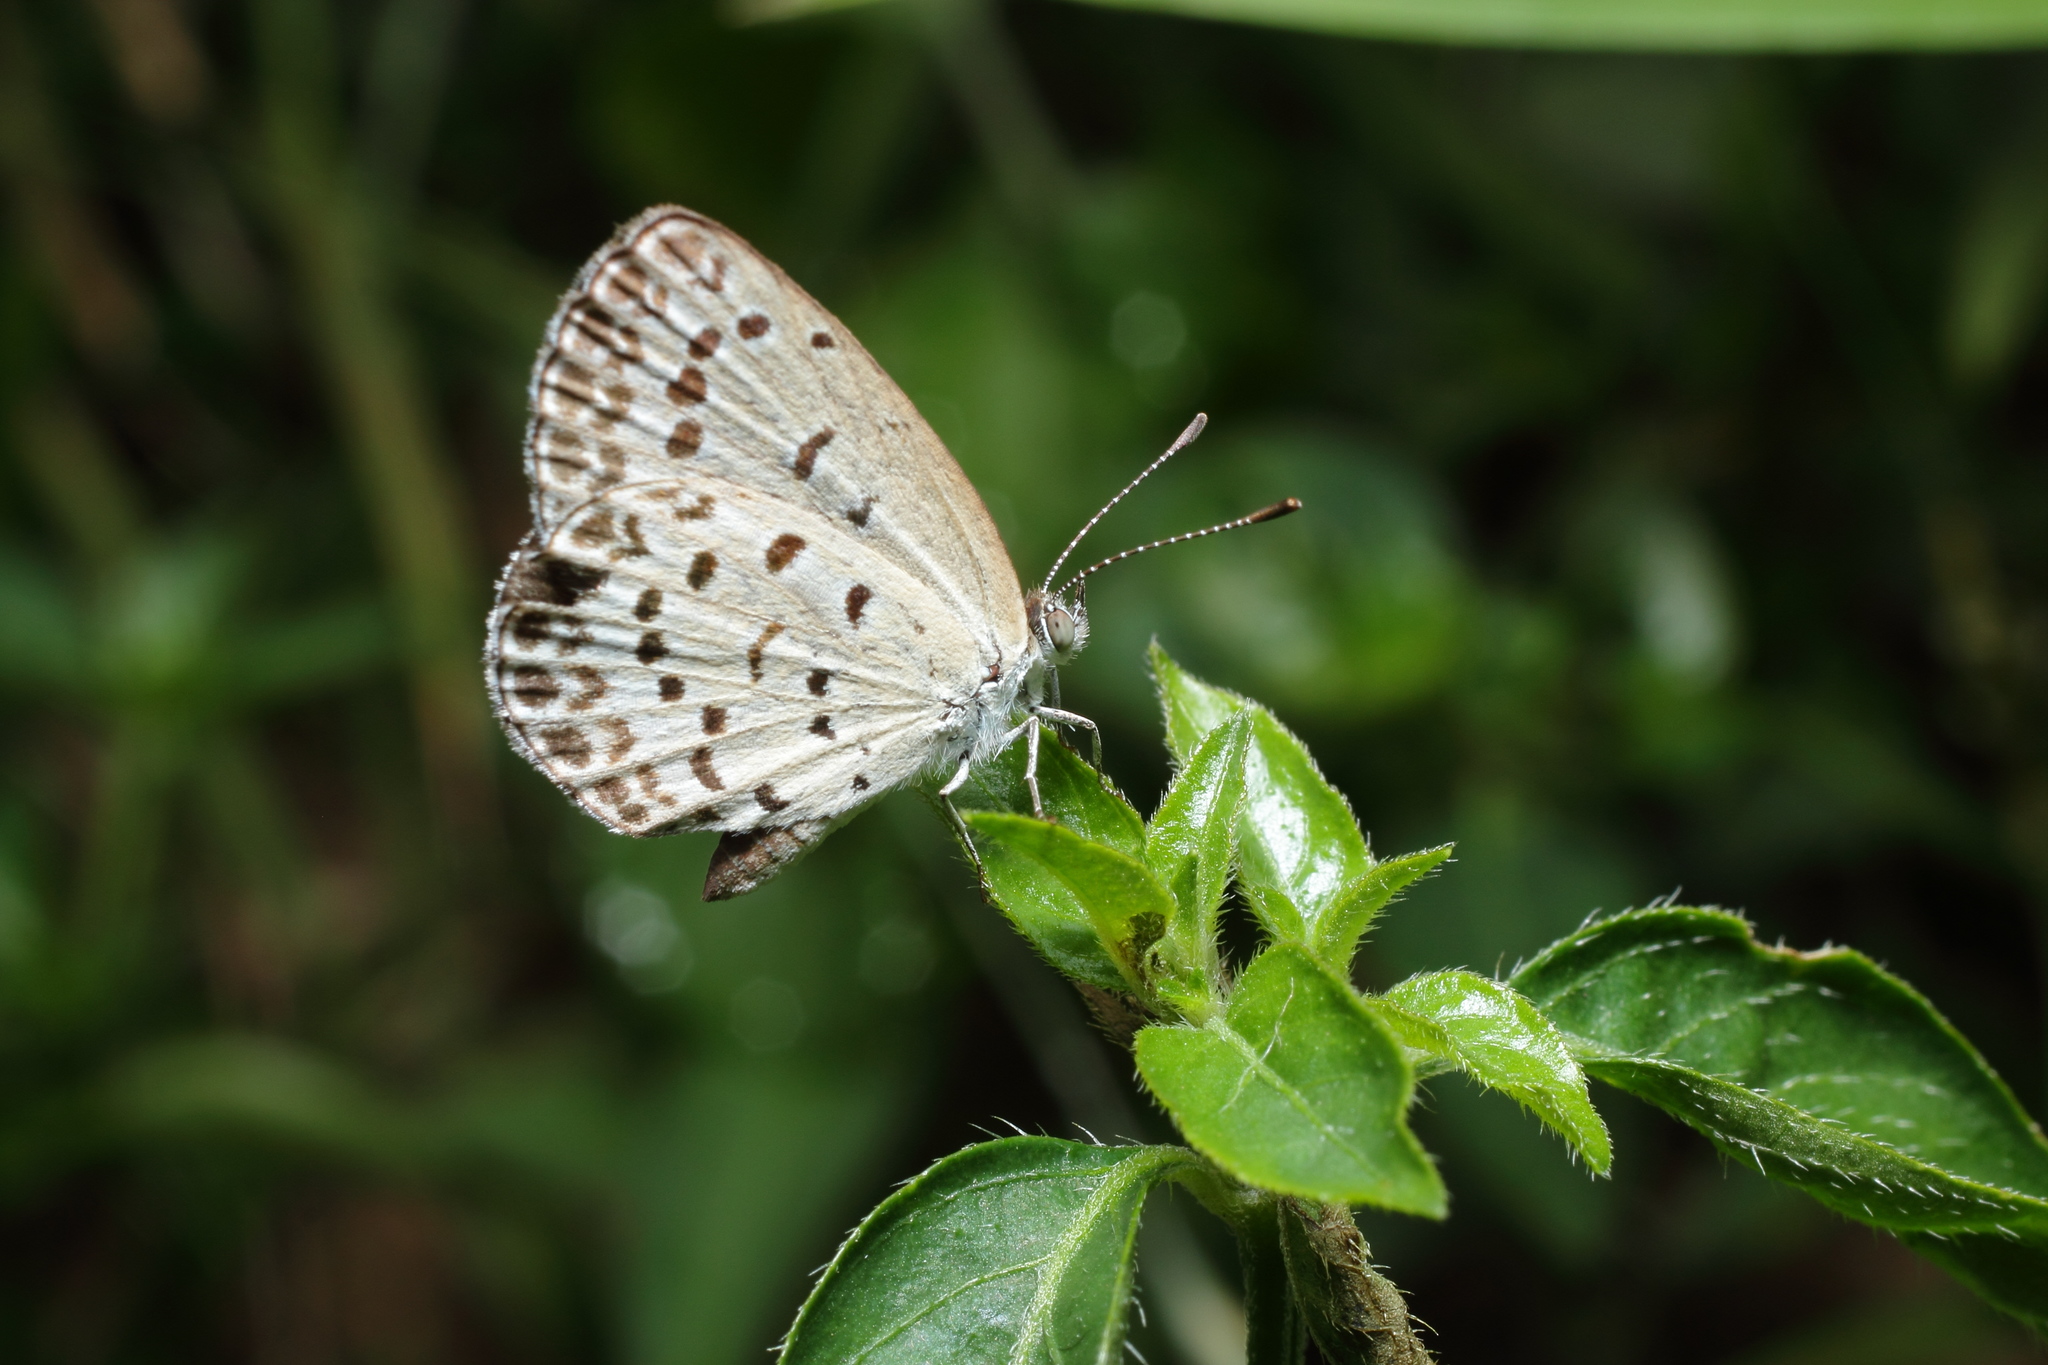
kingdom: Animalia
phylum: Arthropoda
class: Insecta
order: Lepidoptera
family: Lycaenidae
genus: Pseudozizeeria
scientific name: Pseudozizeeria maha
